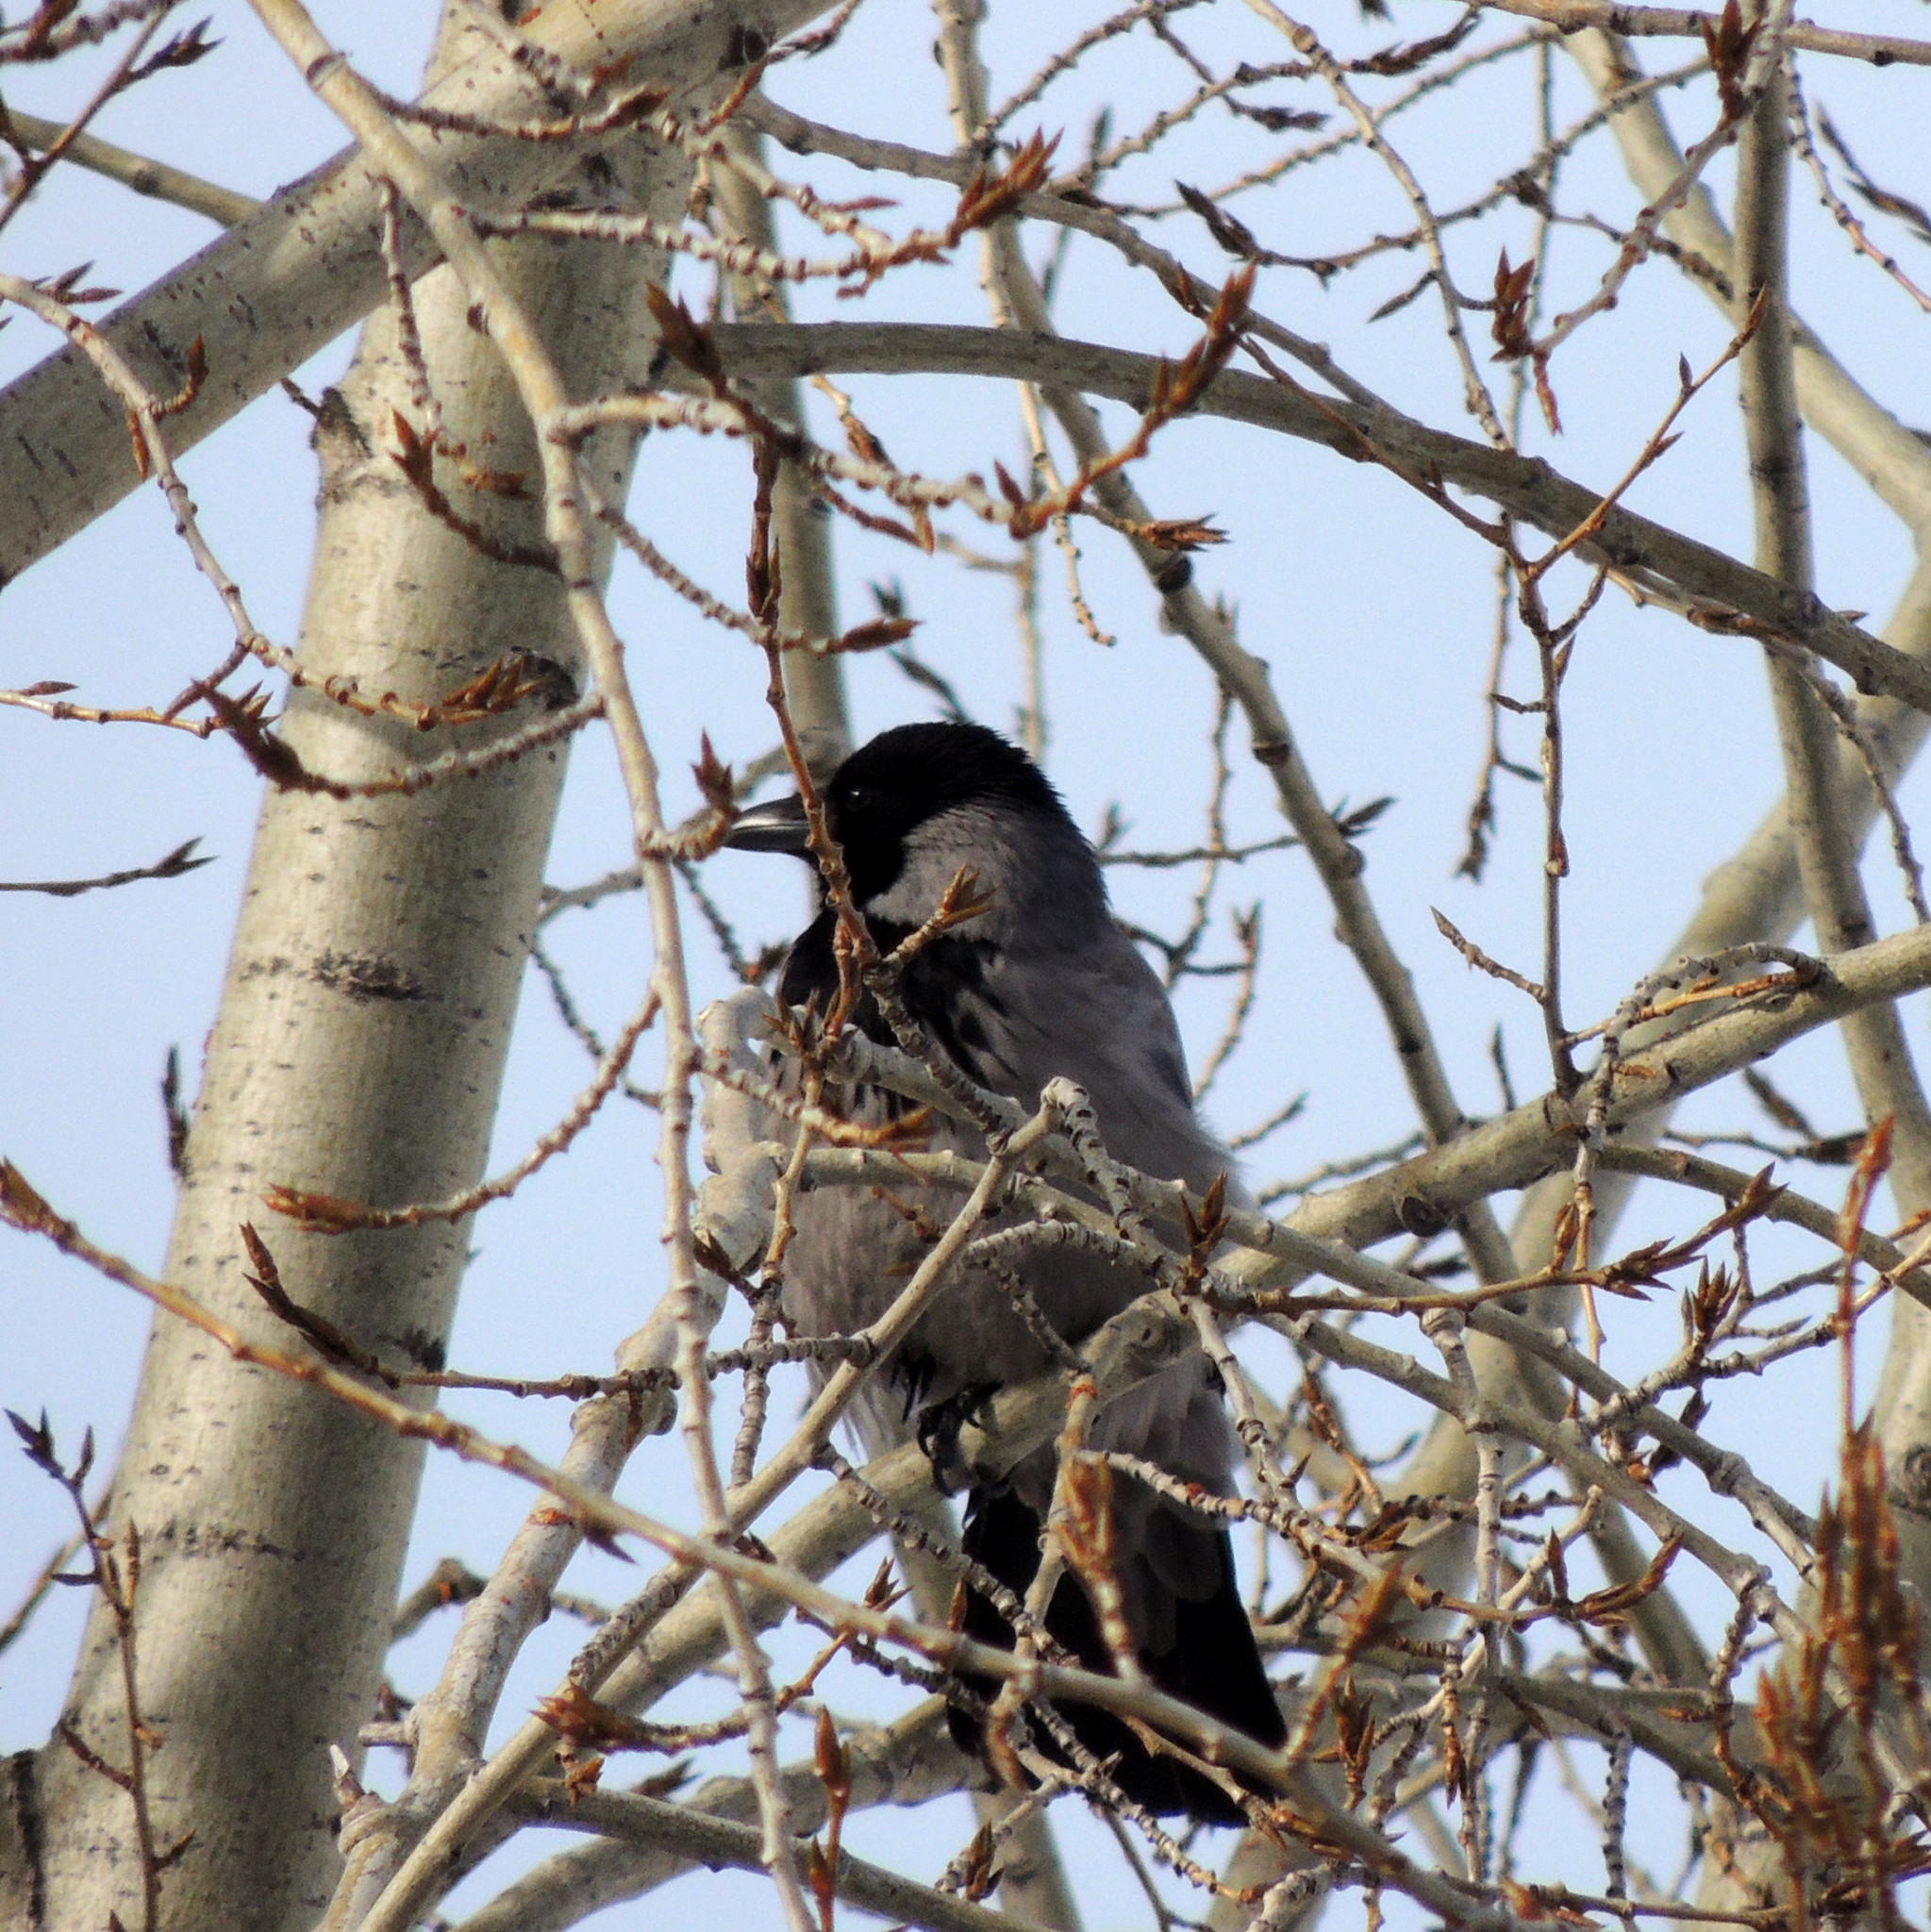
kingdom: Animalia
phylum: Chordata
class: Aves
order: Passeriformes
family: Corvidae
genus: Corvus
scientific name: Corvus cornix
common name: Hooded crow
